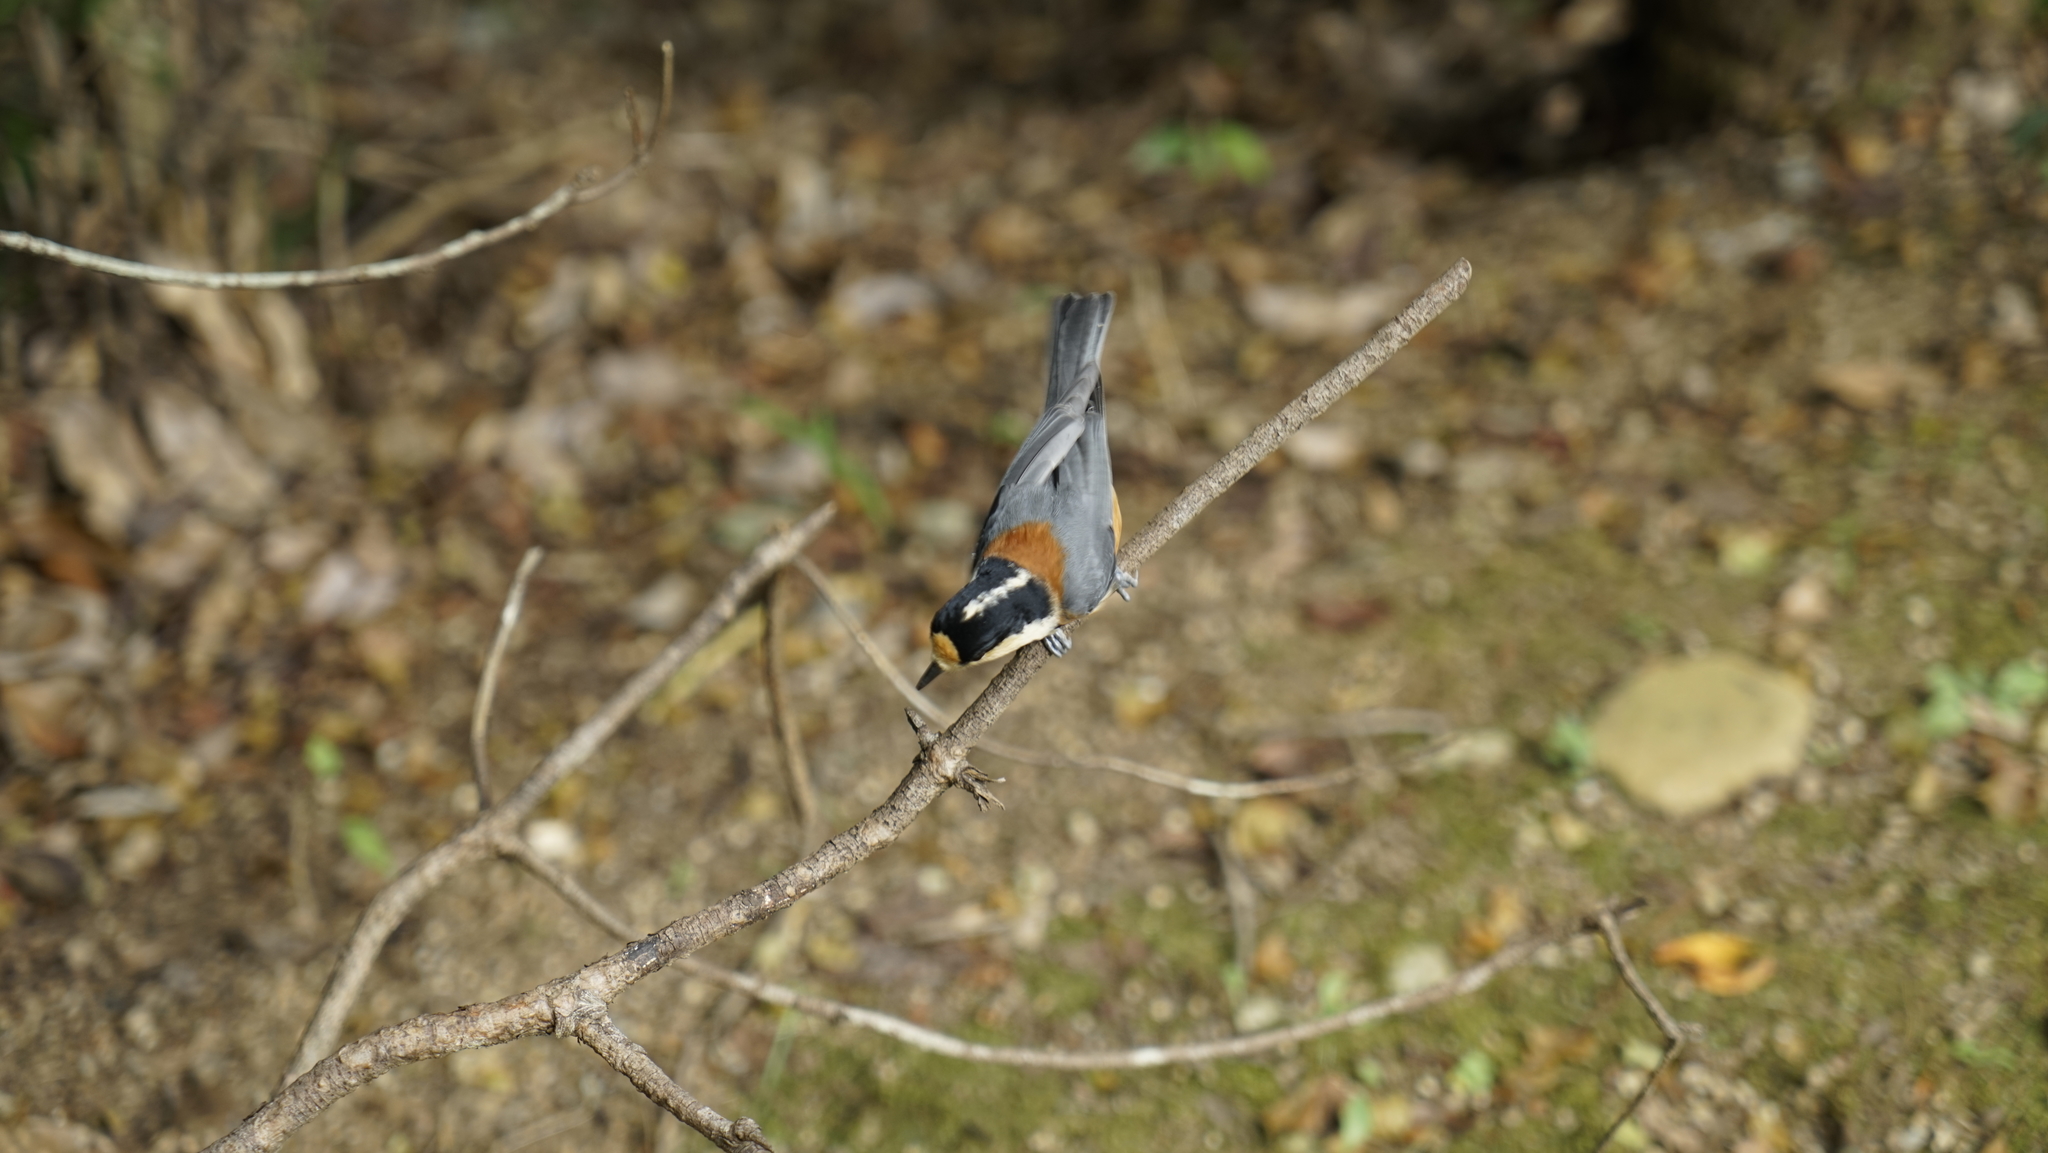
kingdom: Animalia
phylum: Chordata
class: Aves
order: Passeriformes
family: Paridae
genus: Poecile
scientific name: Poecile varius
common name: Varied tit
